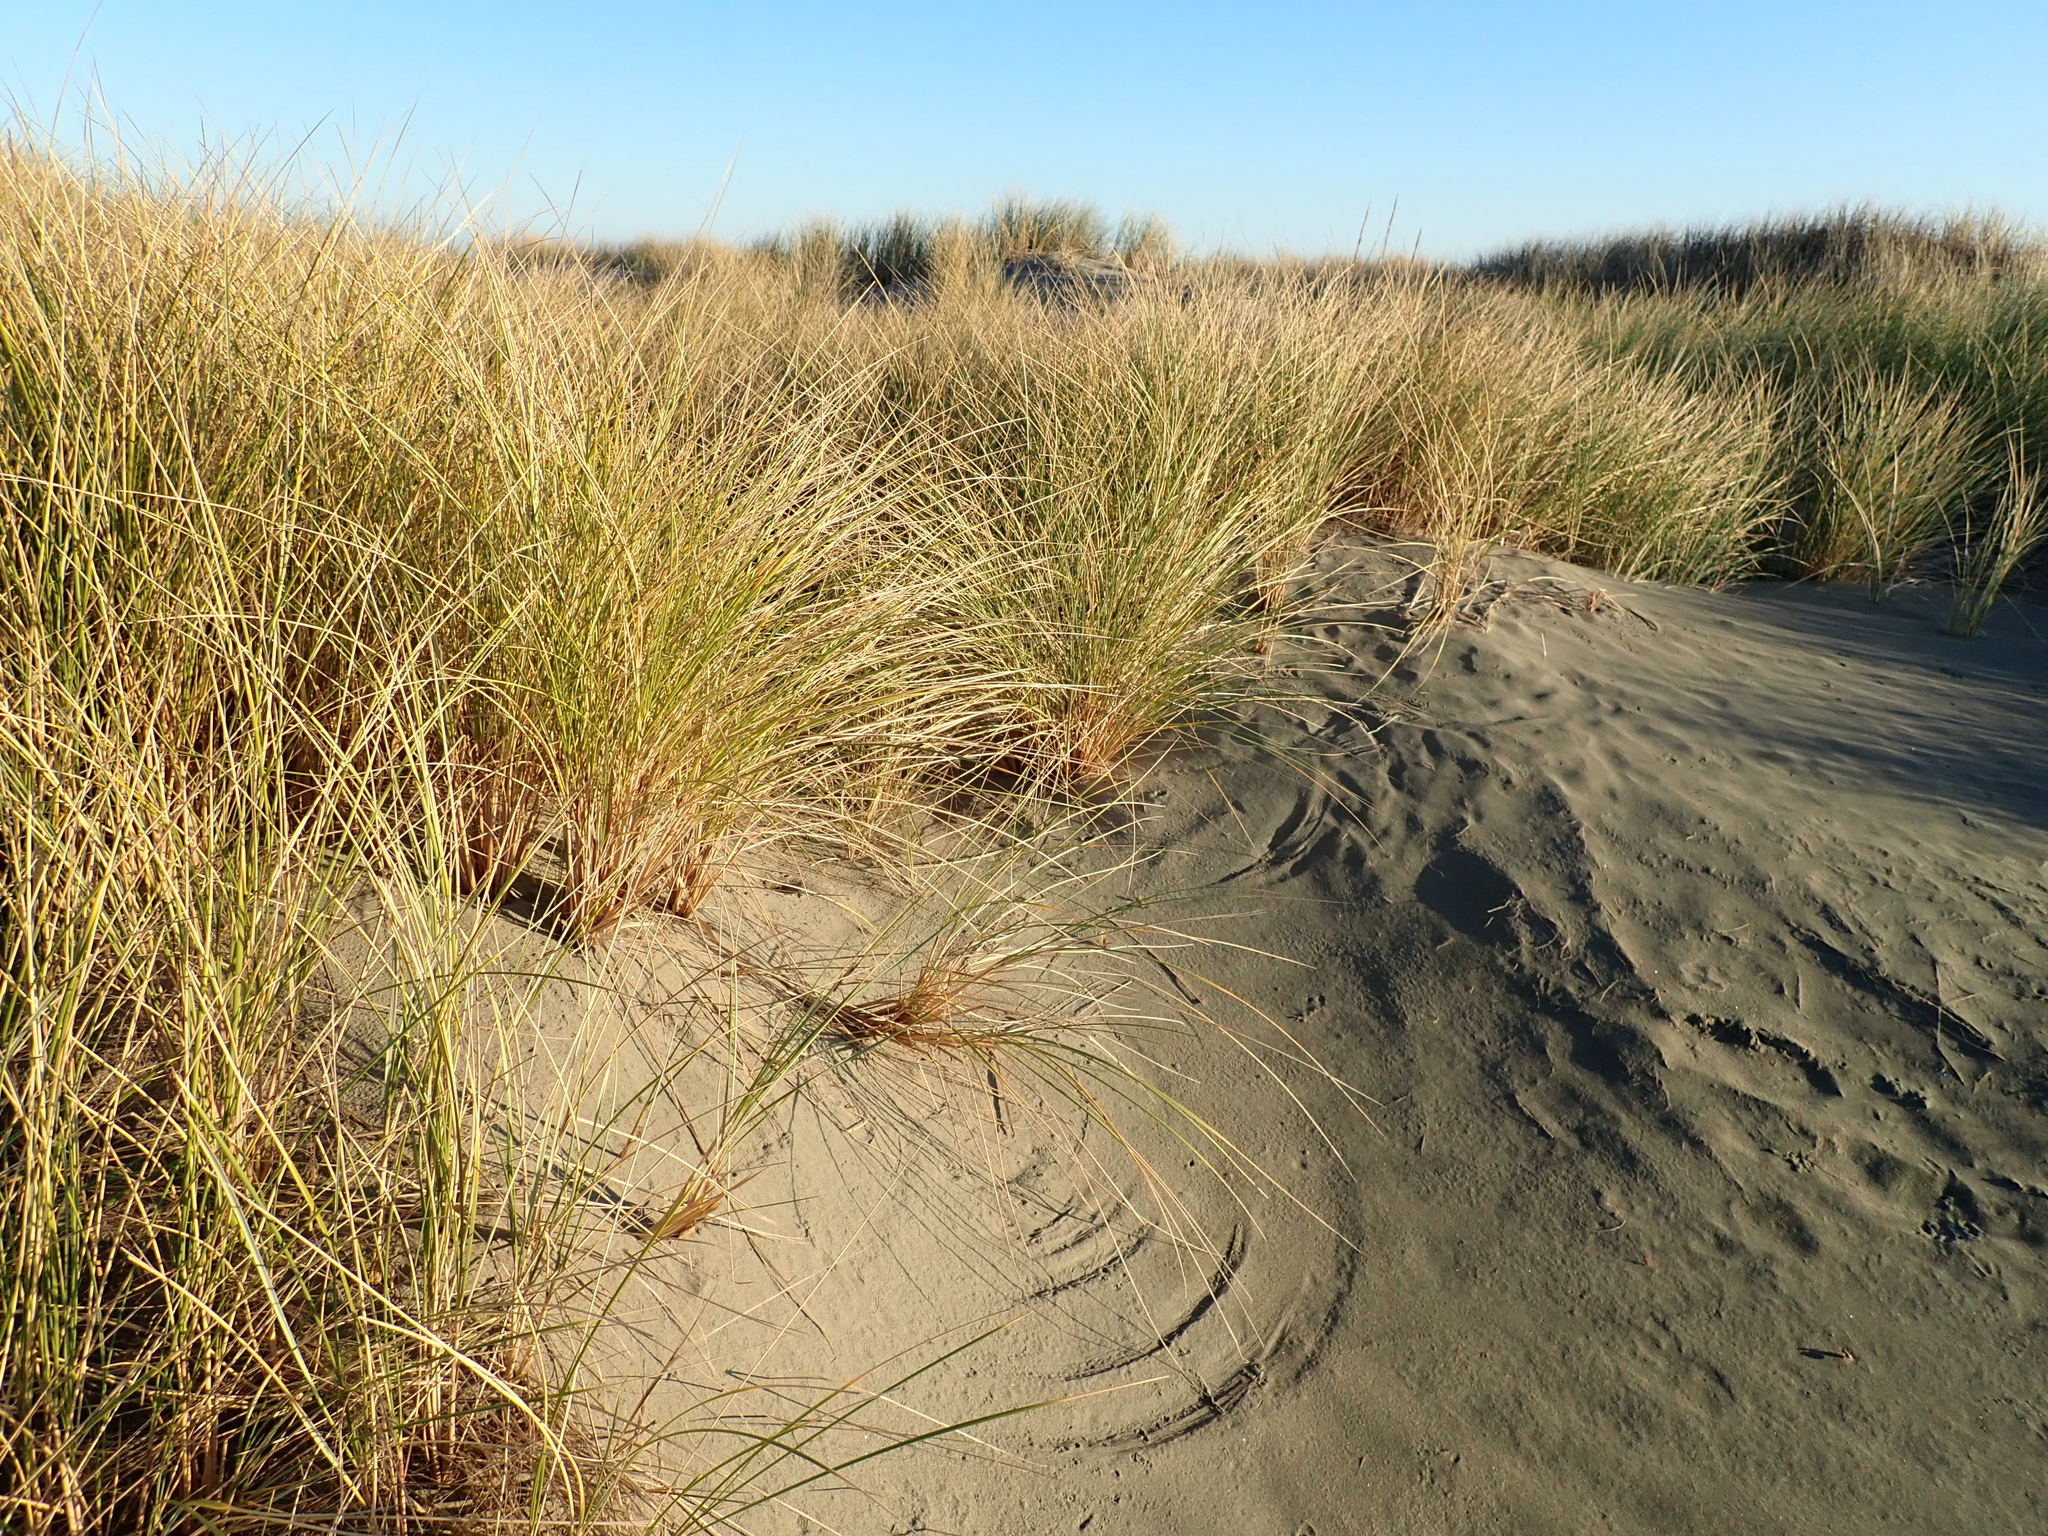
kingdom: Plantae
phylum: Tracheophyta
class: Liliopsida
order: Poales
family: Poaceae
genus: Calamagrostis
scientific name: Calamagrostis arenaria
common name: European beachgrass
